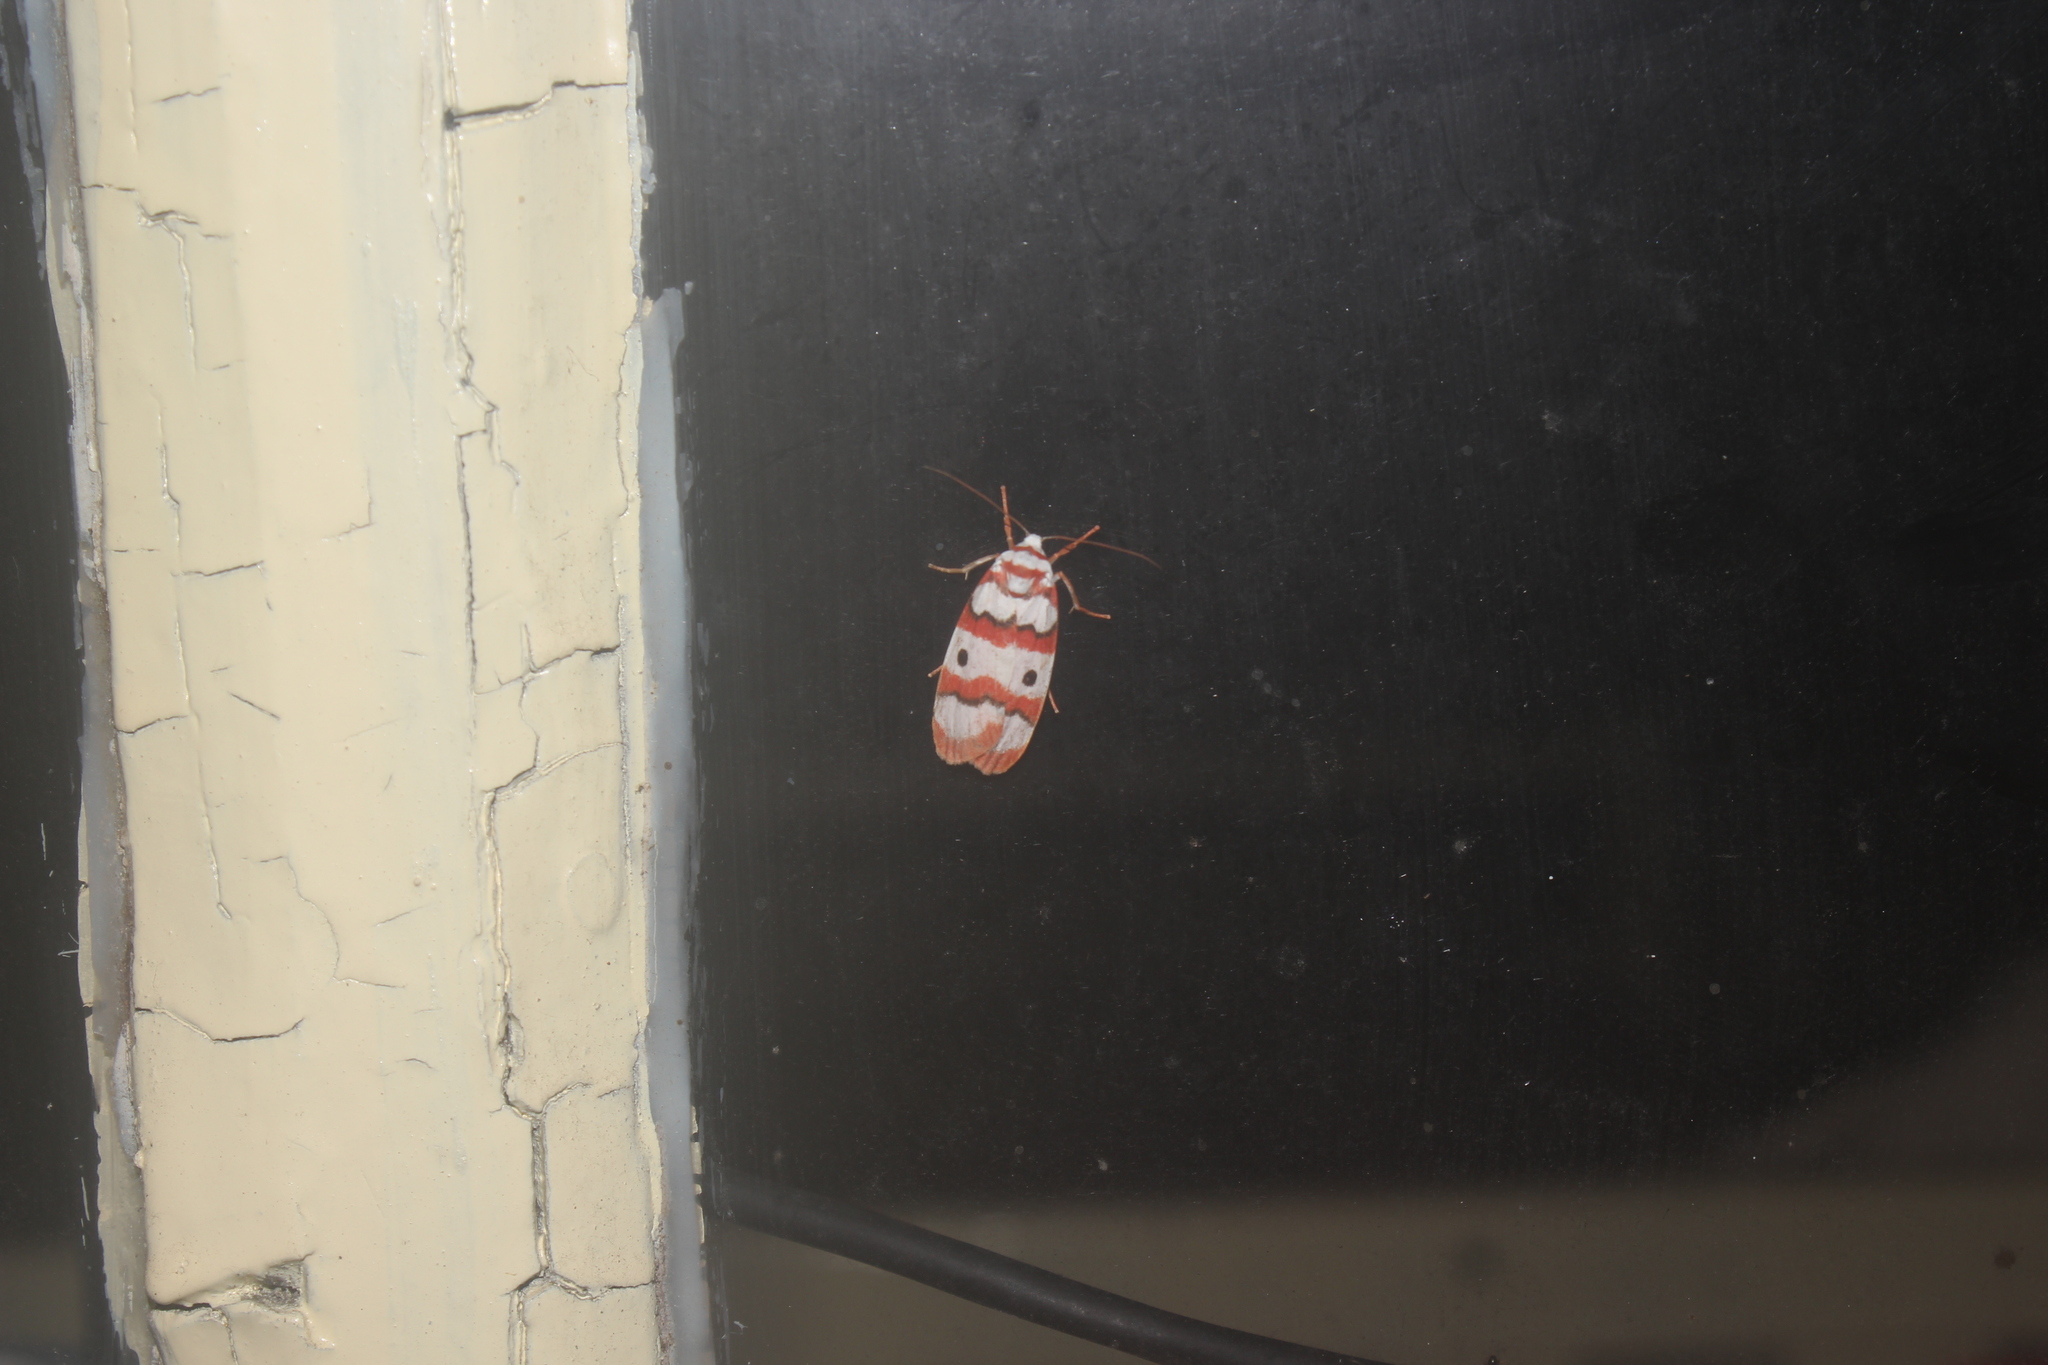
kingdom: Animalia
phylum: Arthropoda
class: Insecta
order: Lepidoptera
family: Erebidae
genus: Cyana
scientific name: Cyana bhatejai
